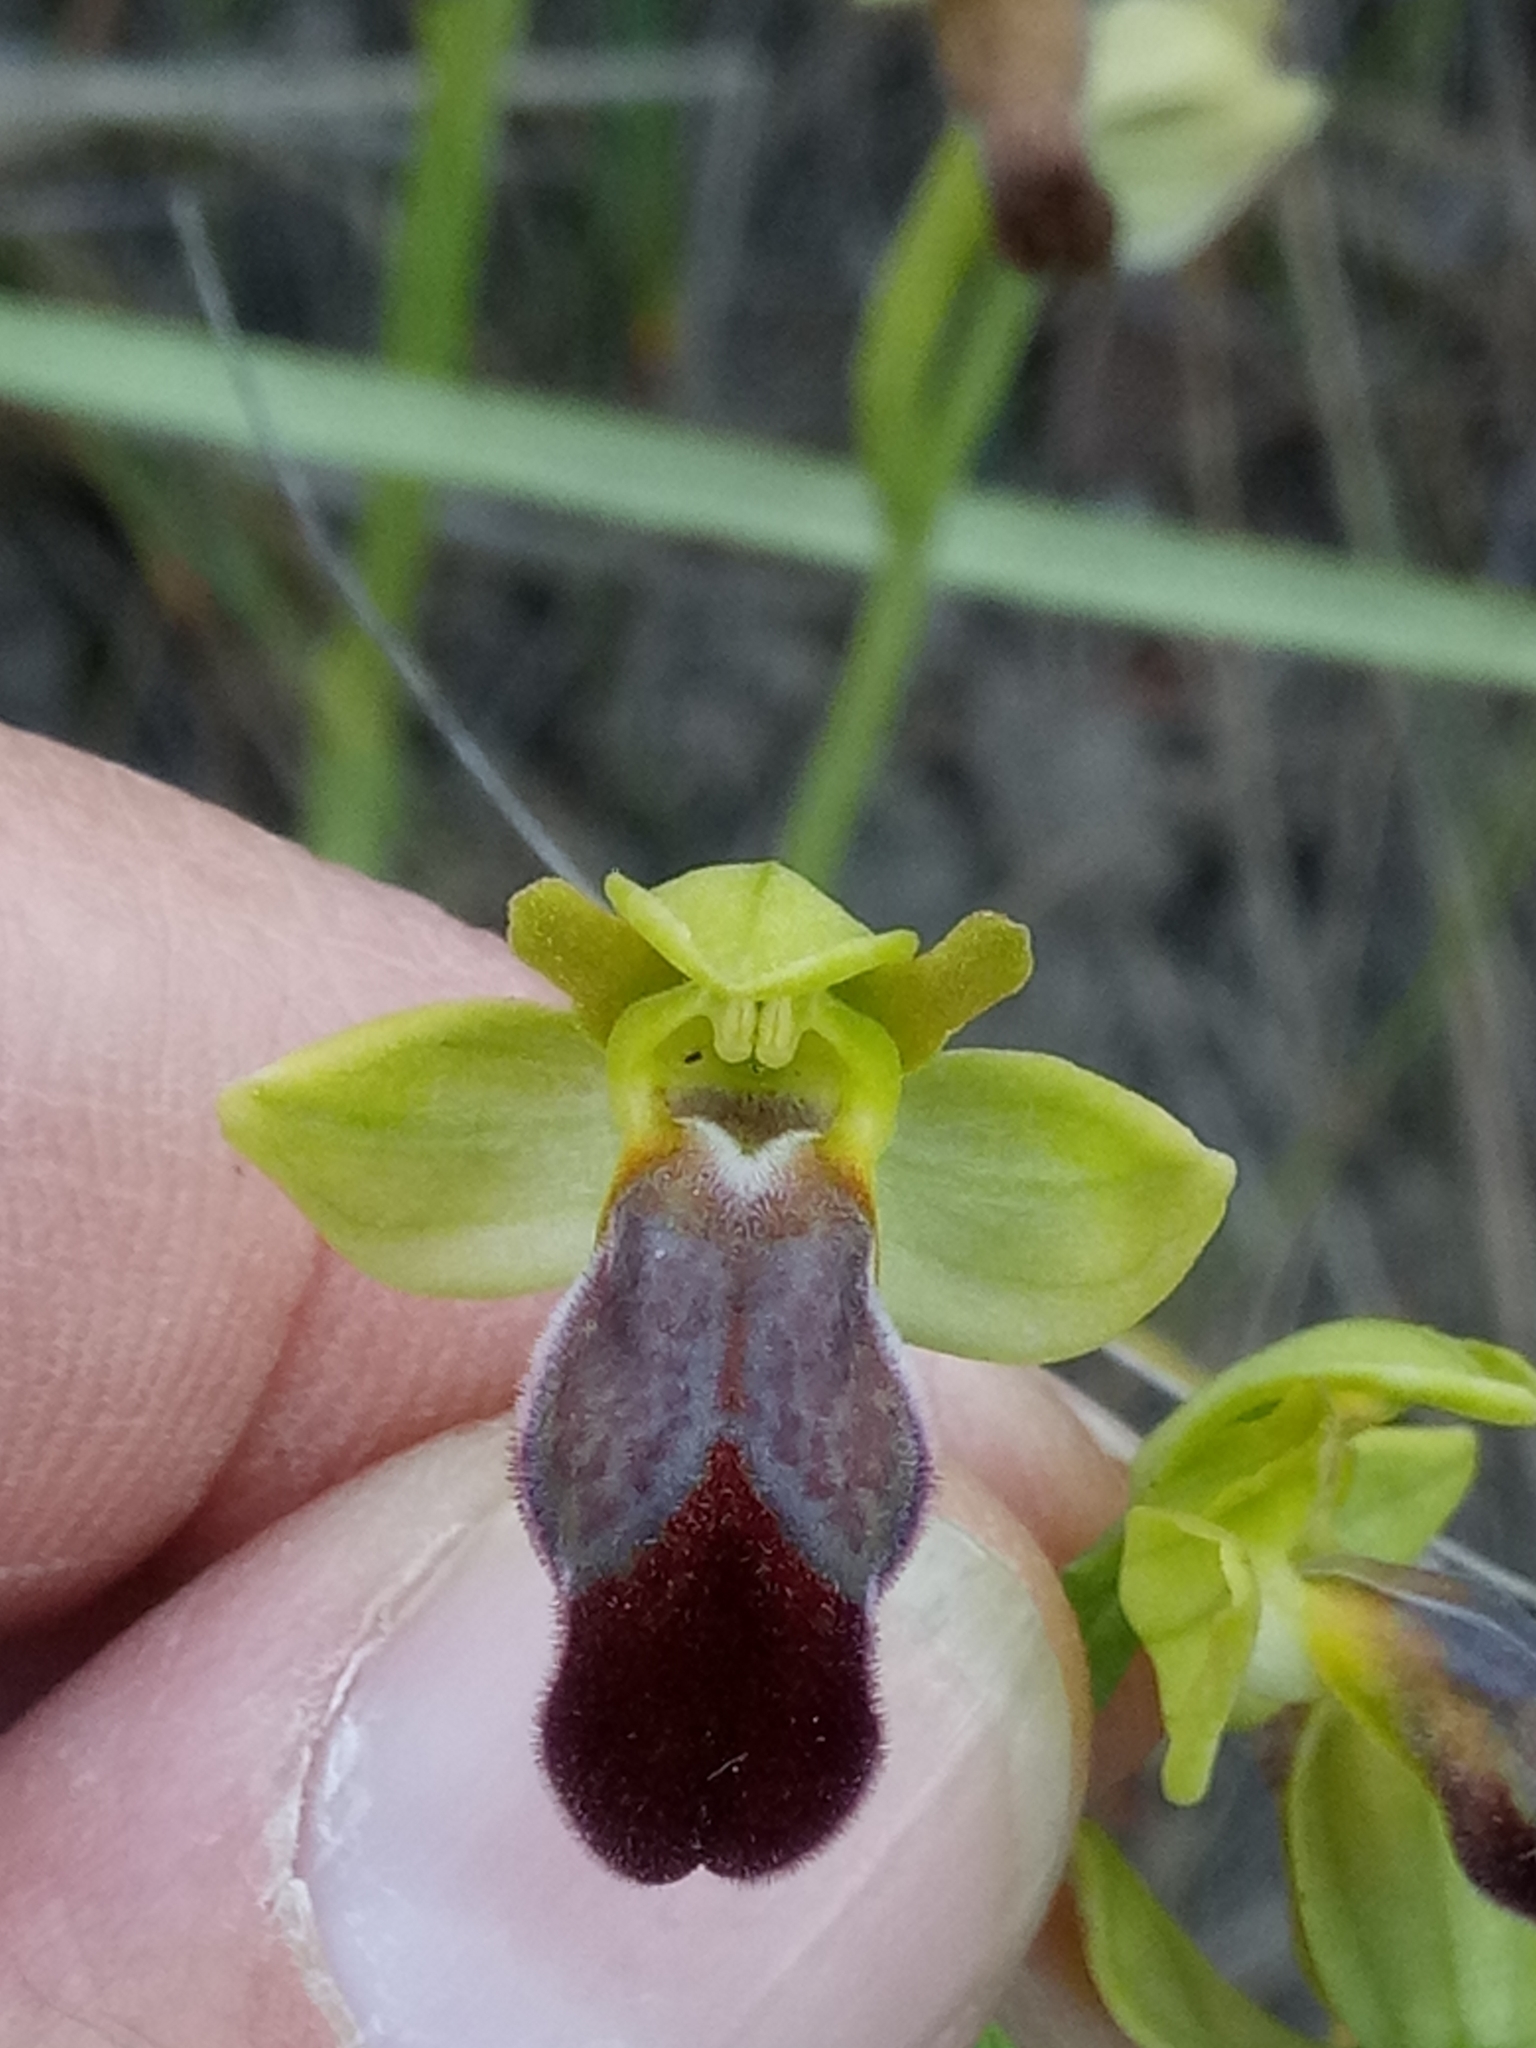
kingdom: Plantae
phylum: Tracheophyta
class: Liliopsida
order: Asparagales
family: Orchidaceae
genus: Ophrys
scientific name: Ophrys fusca
